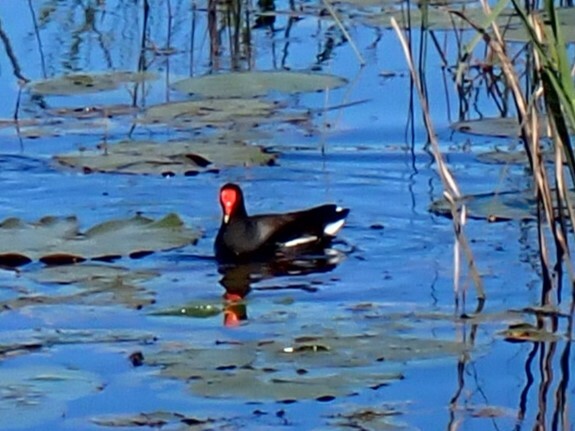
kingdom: Animalia
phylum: Chordata
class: Aves
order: Gruiformes
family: Rallidae
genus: Gallinula
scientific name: Gallinula chloropus
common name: Common moorhen
